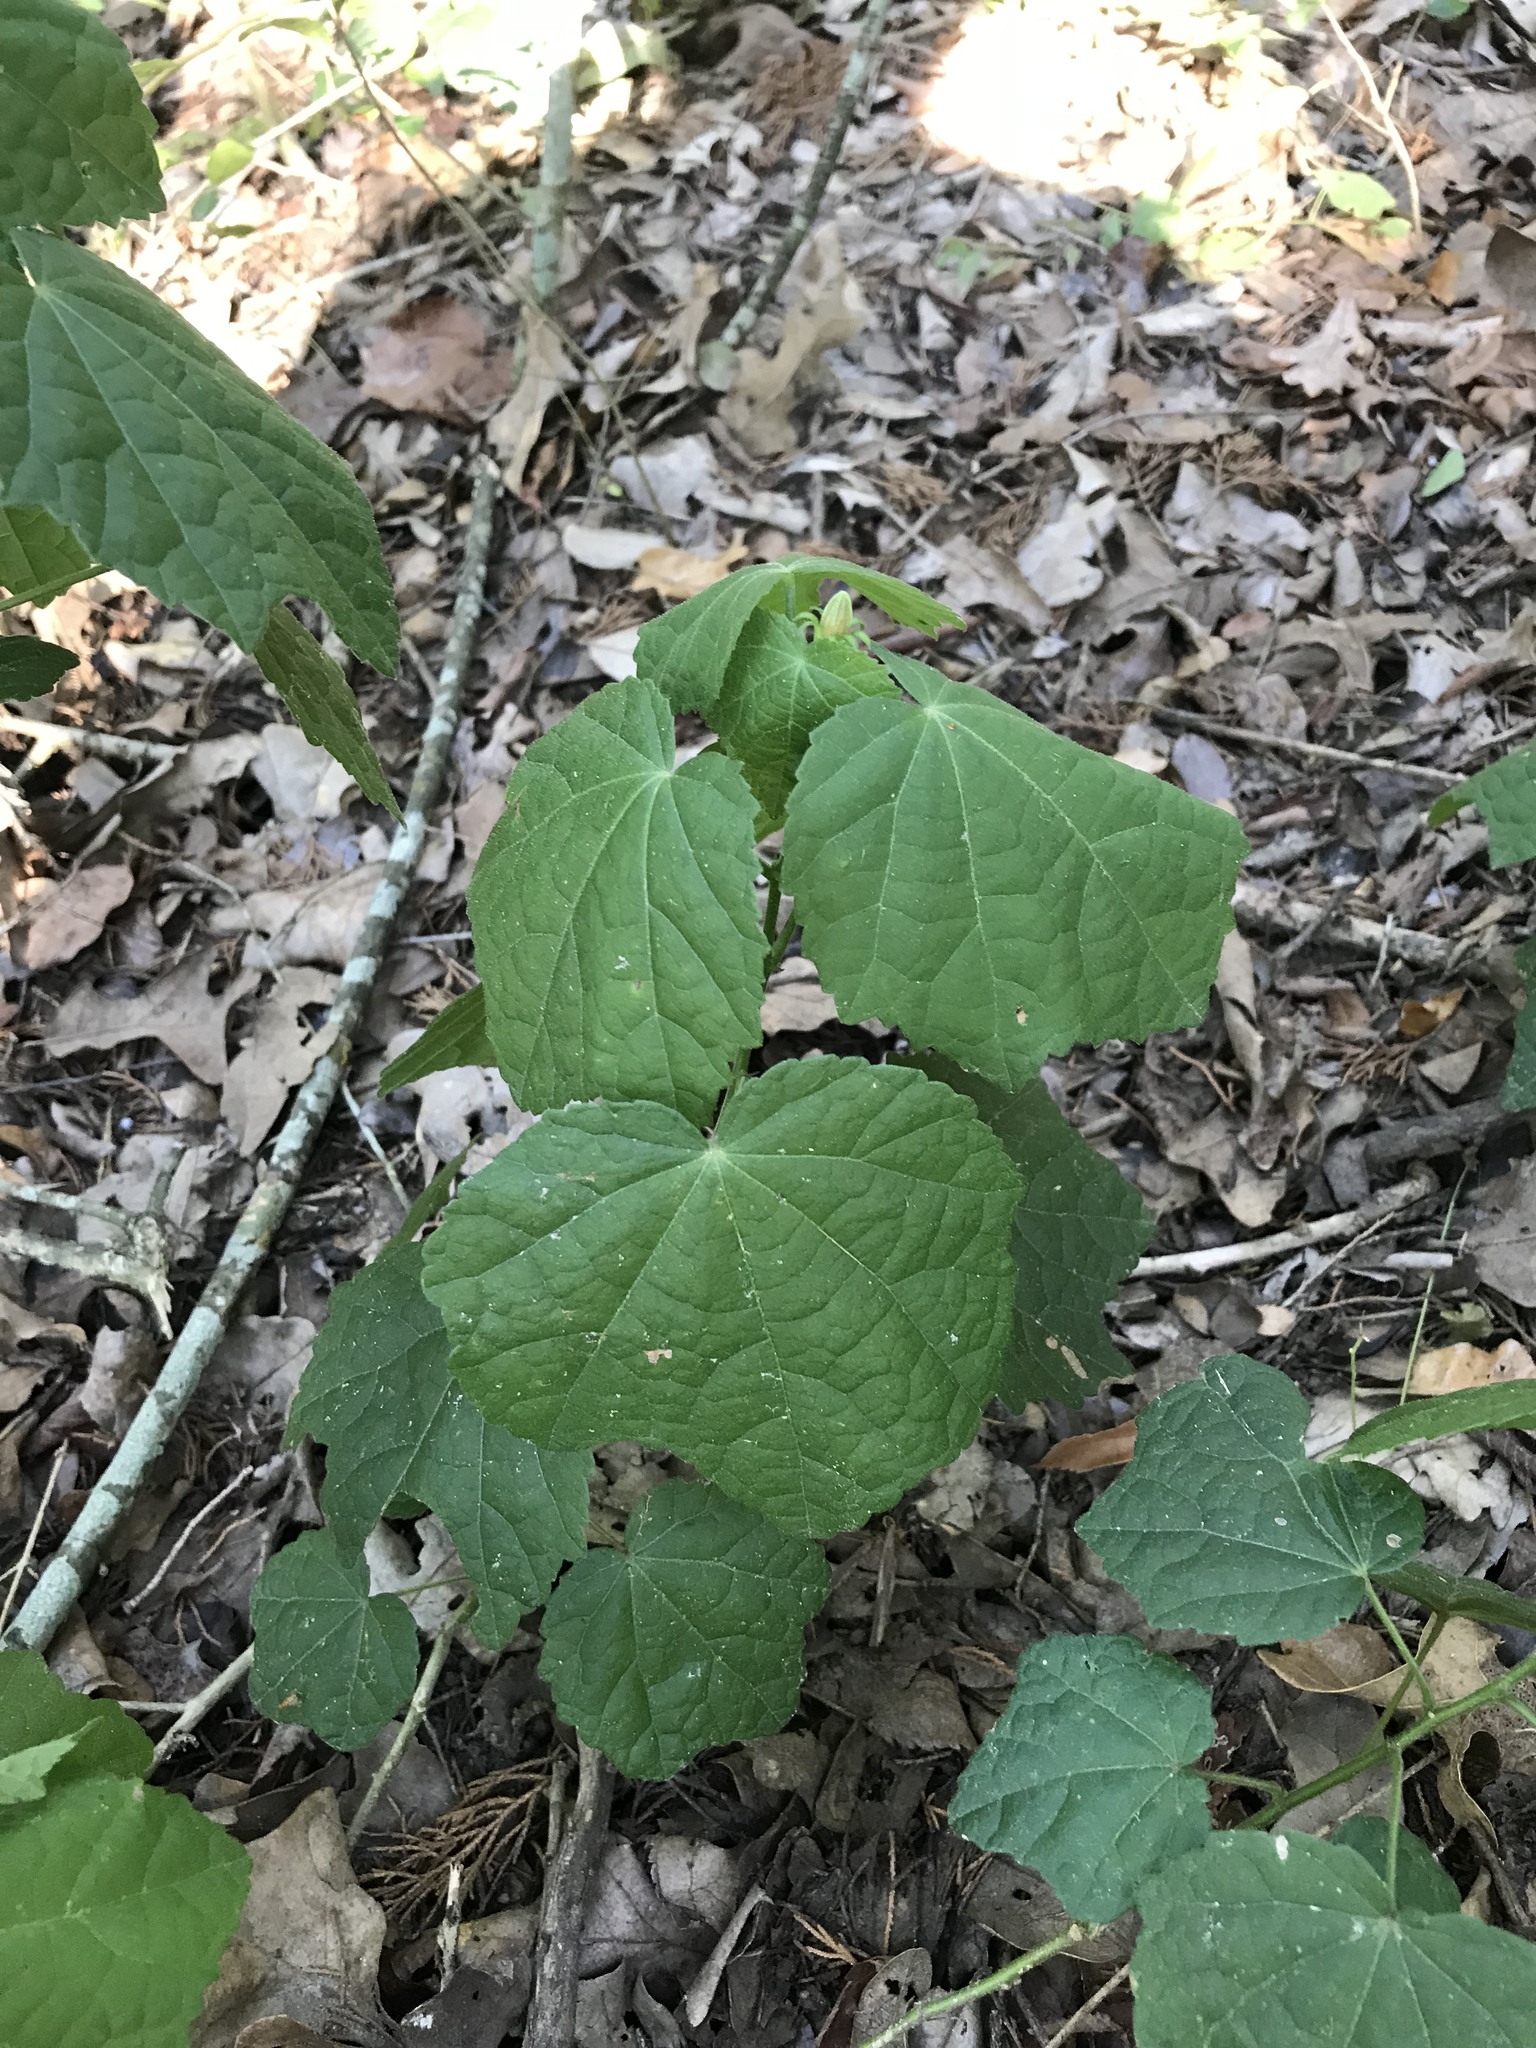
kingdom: Plantae
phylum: Tracheophyta
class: Magnoliopsida
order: Malvales
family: Malvaceae
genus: Malvaviscus
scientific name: Malvaviscus arboreus
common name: Wax mallow
